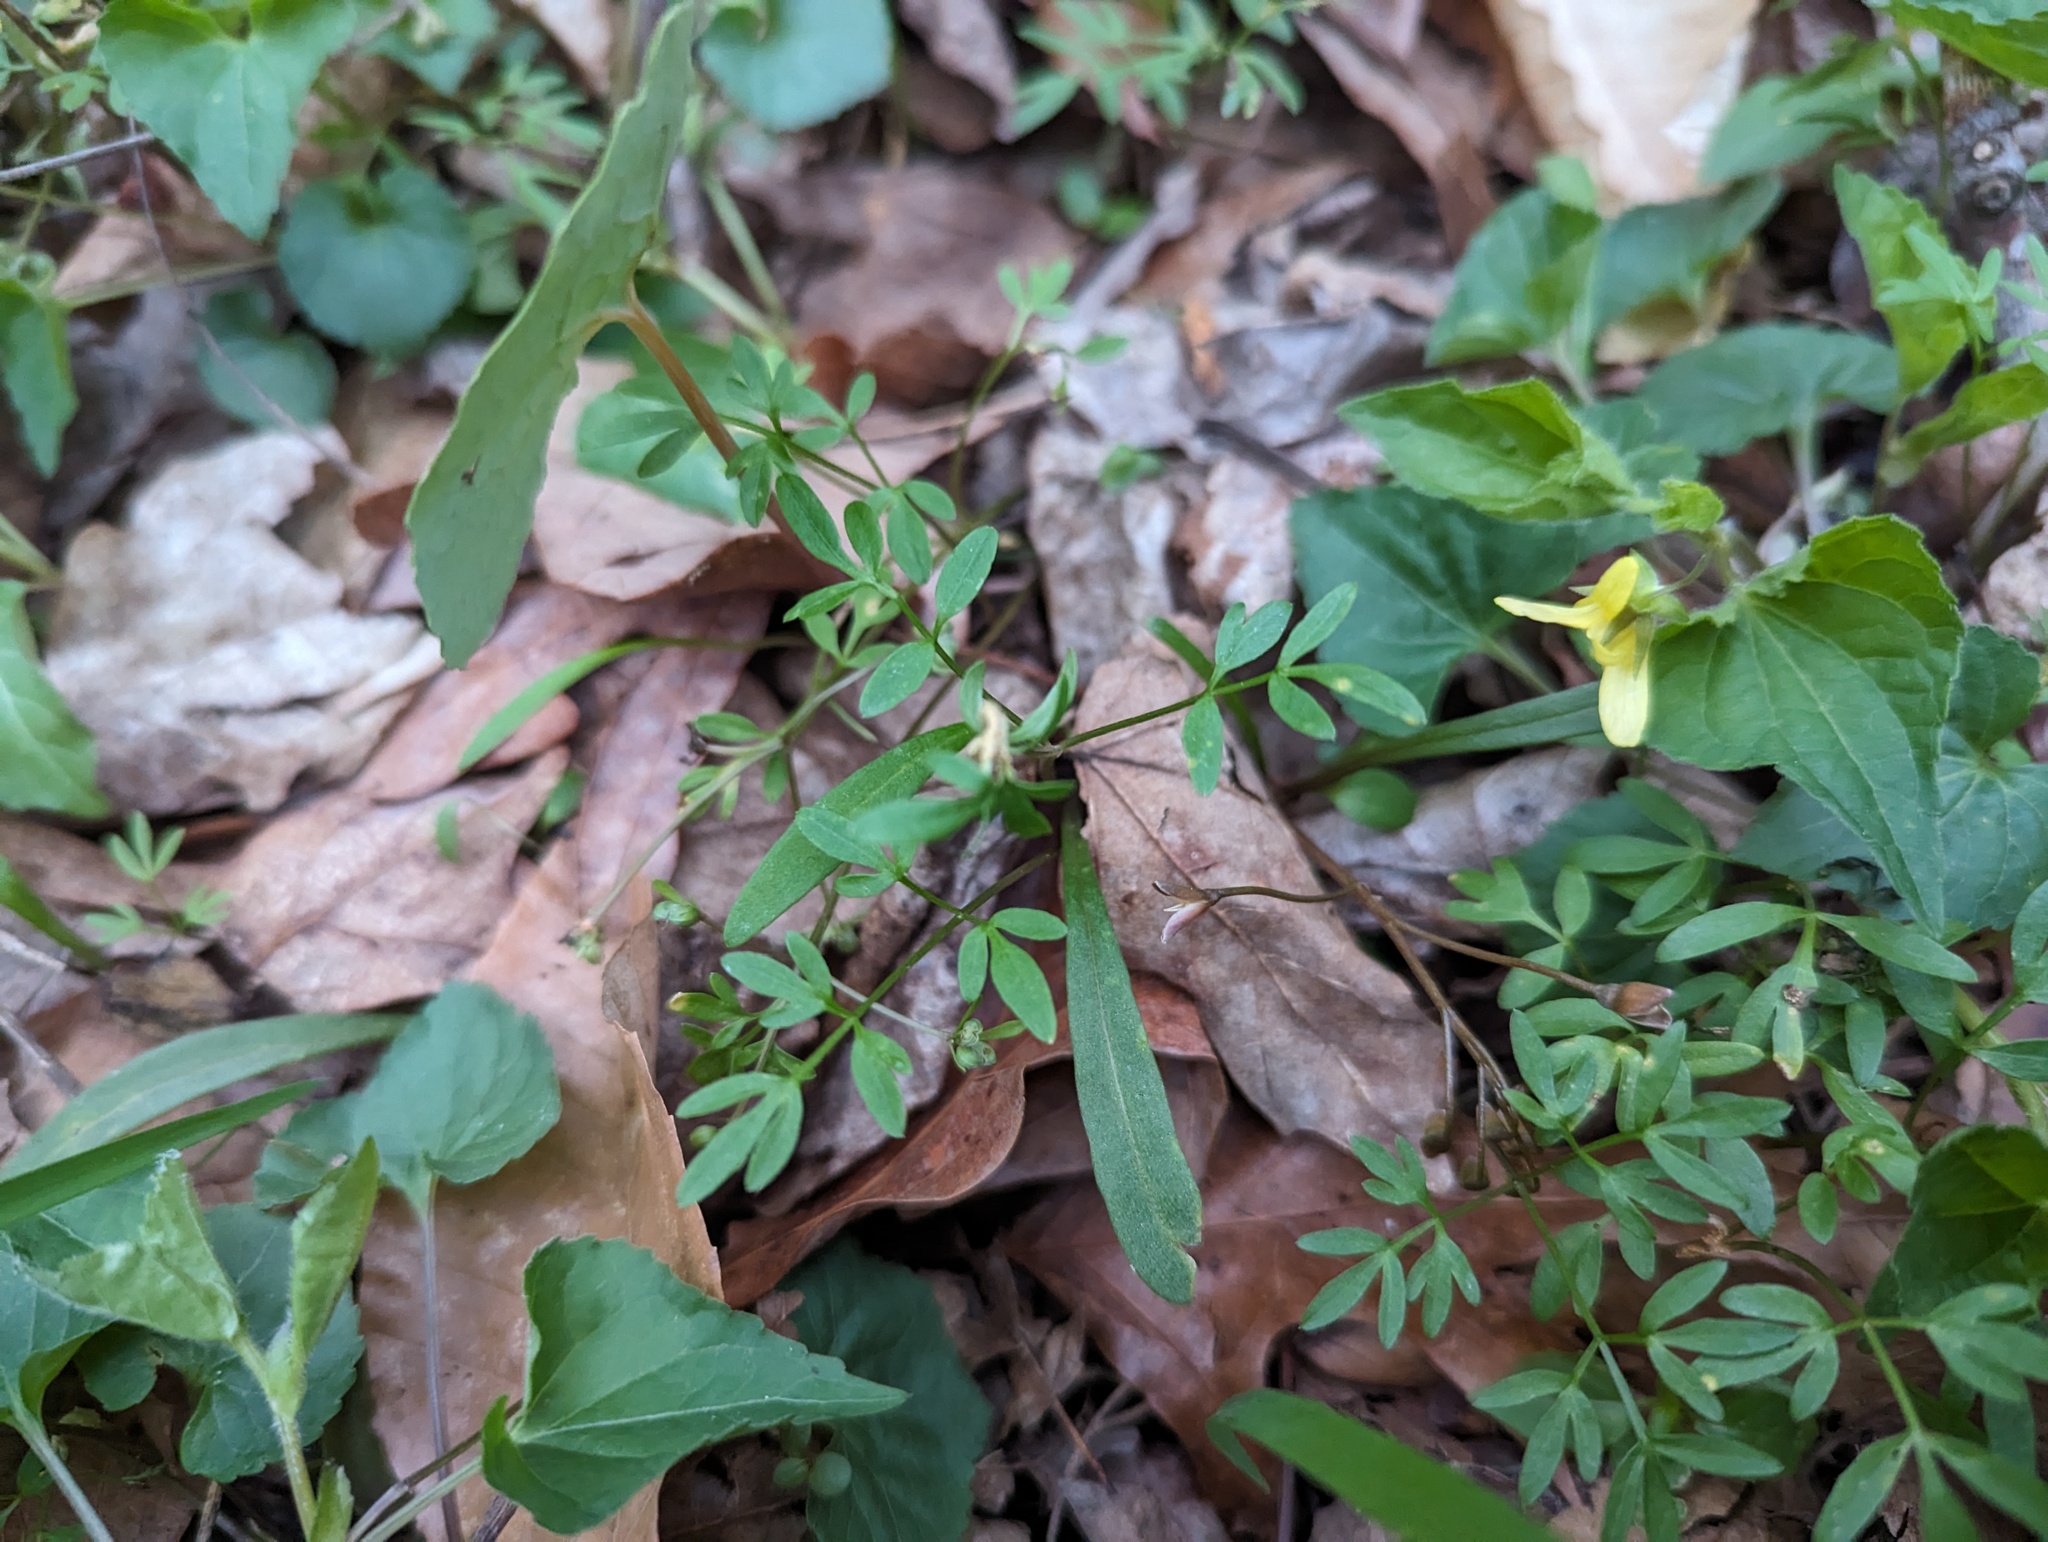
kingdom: Plantae
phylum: Tracheophyta
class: Magnoliopsida
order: Apiales
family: Apiaceae
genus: Erigenia
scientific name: Erigenia bulbosa
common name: Pepper-and-salt
